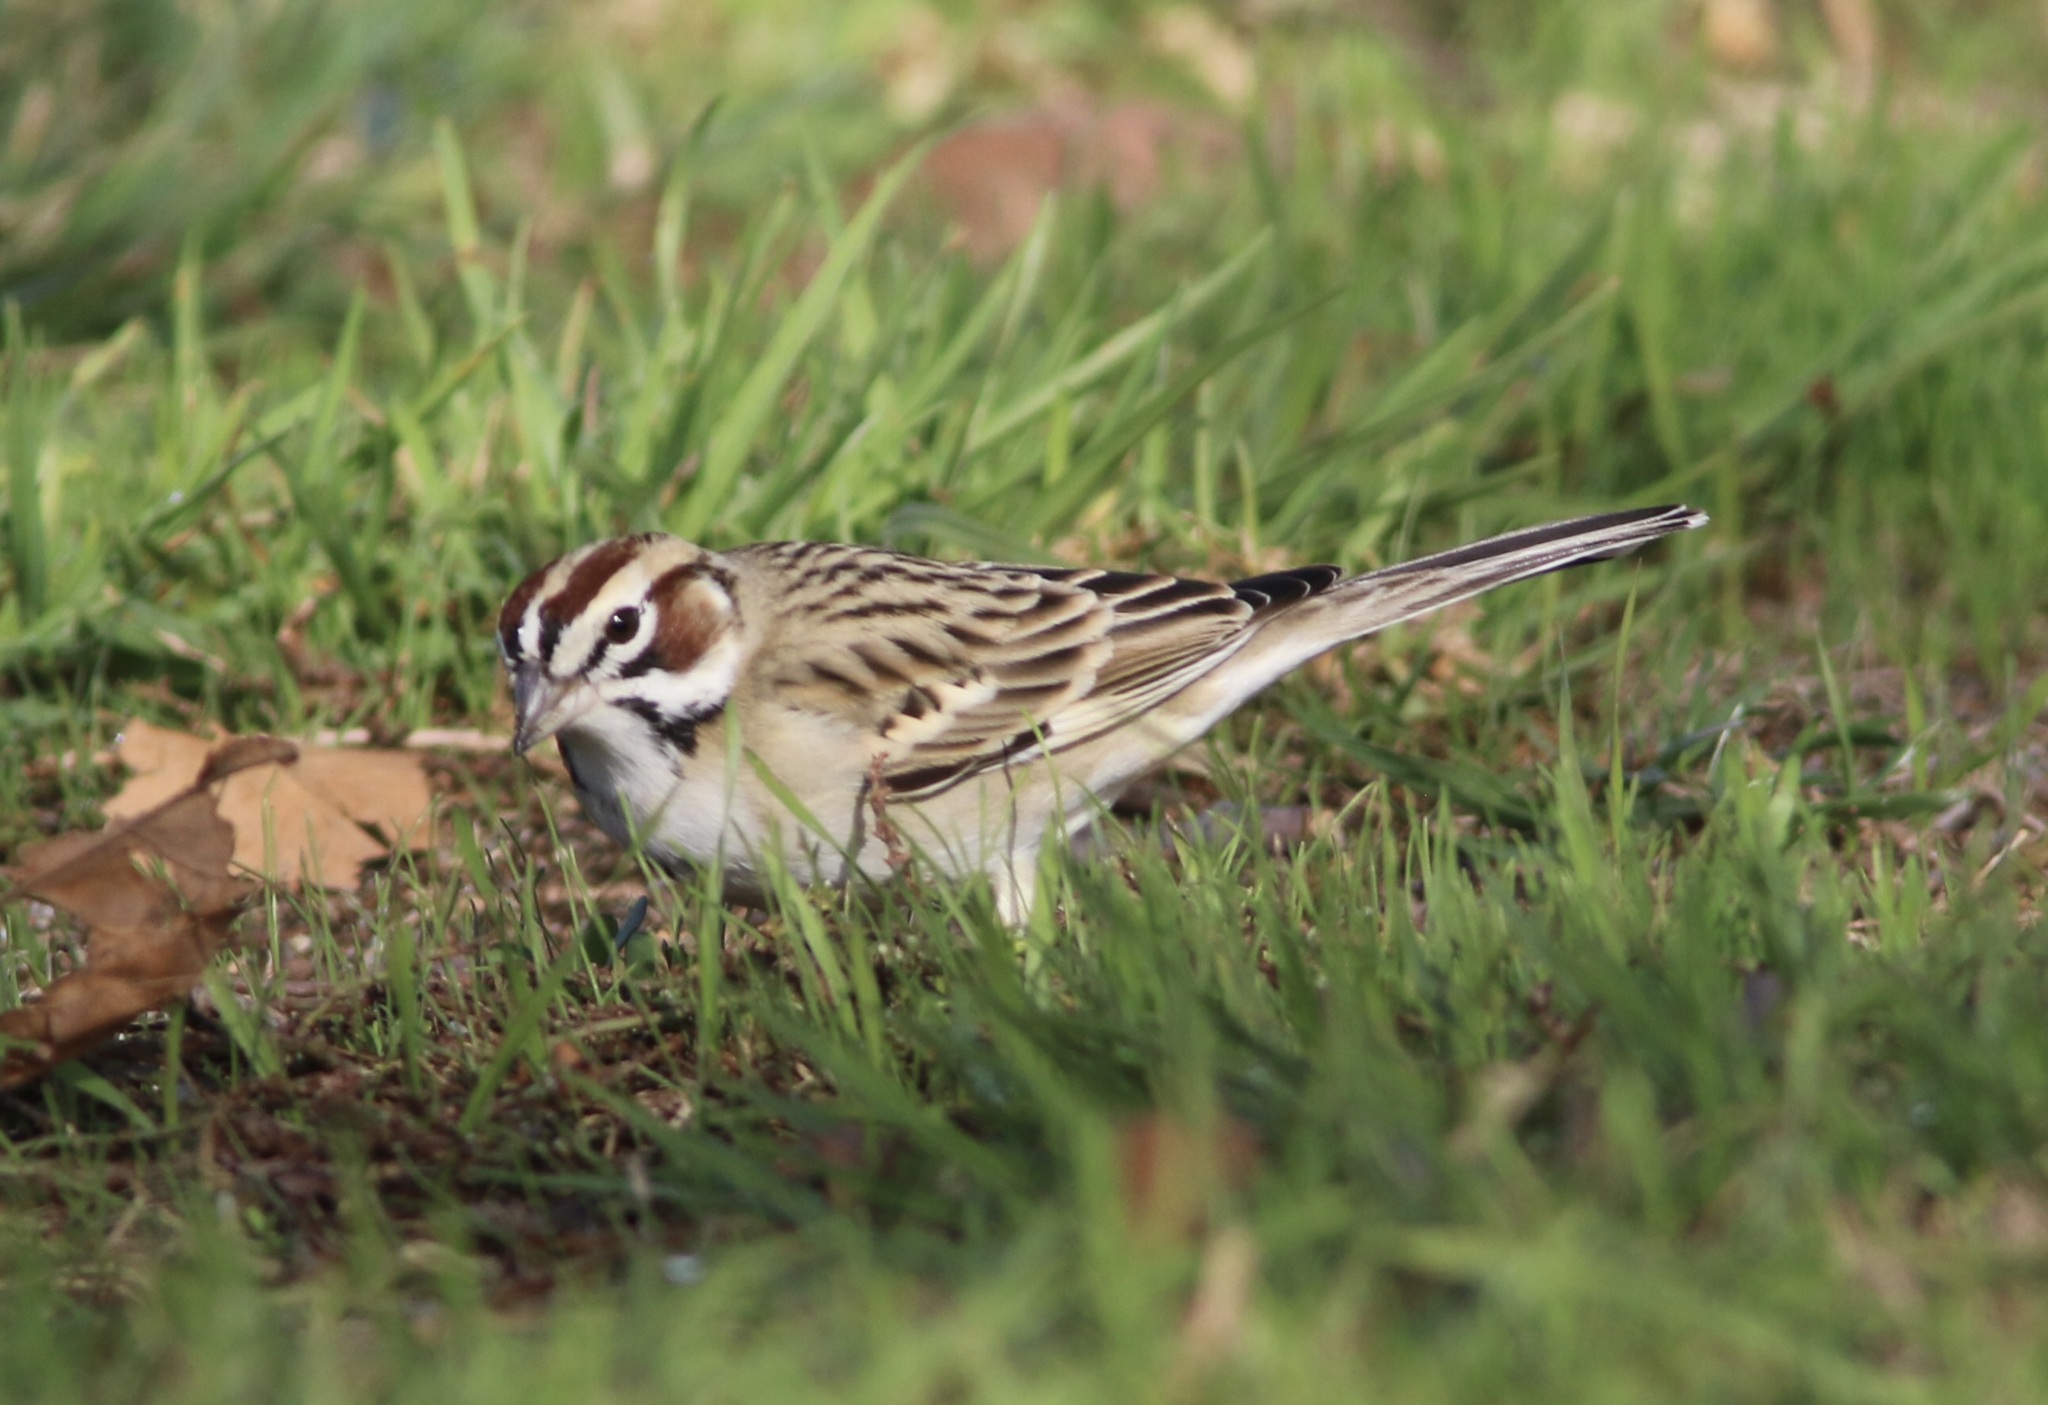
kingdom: Animalia
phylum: Chordata
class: Aves
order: Passeriformes
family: Passerellidae
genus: Chondestes
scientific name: Chondestes grammacus
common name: Lark sparrow
